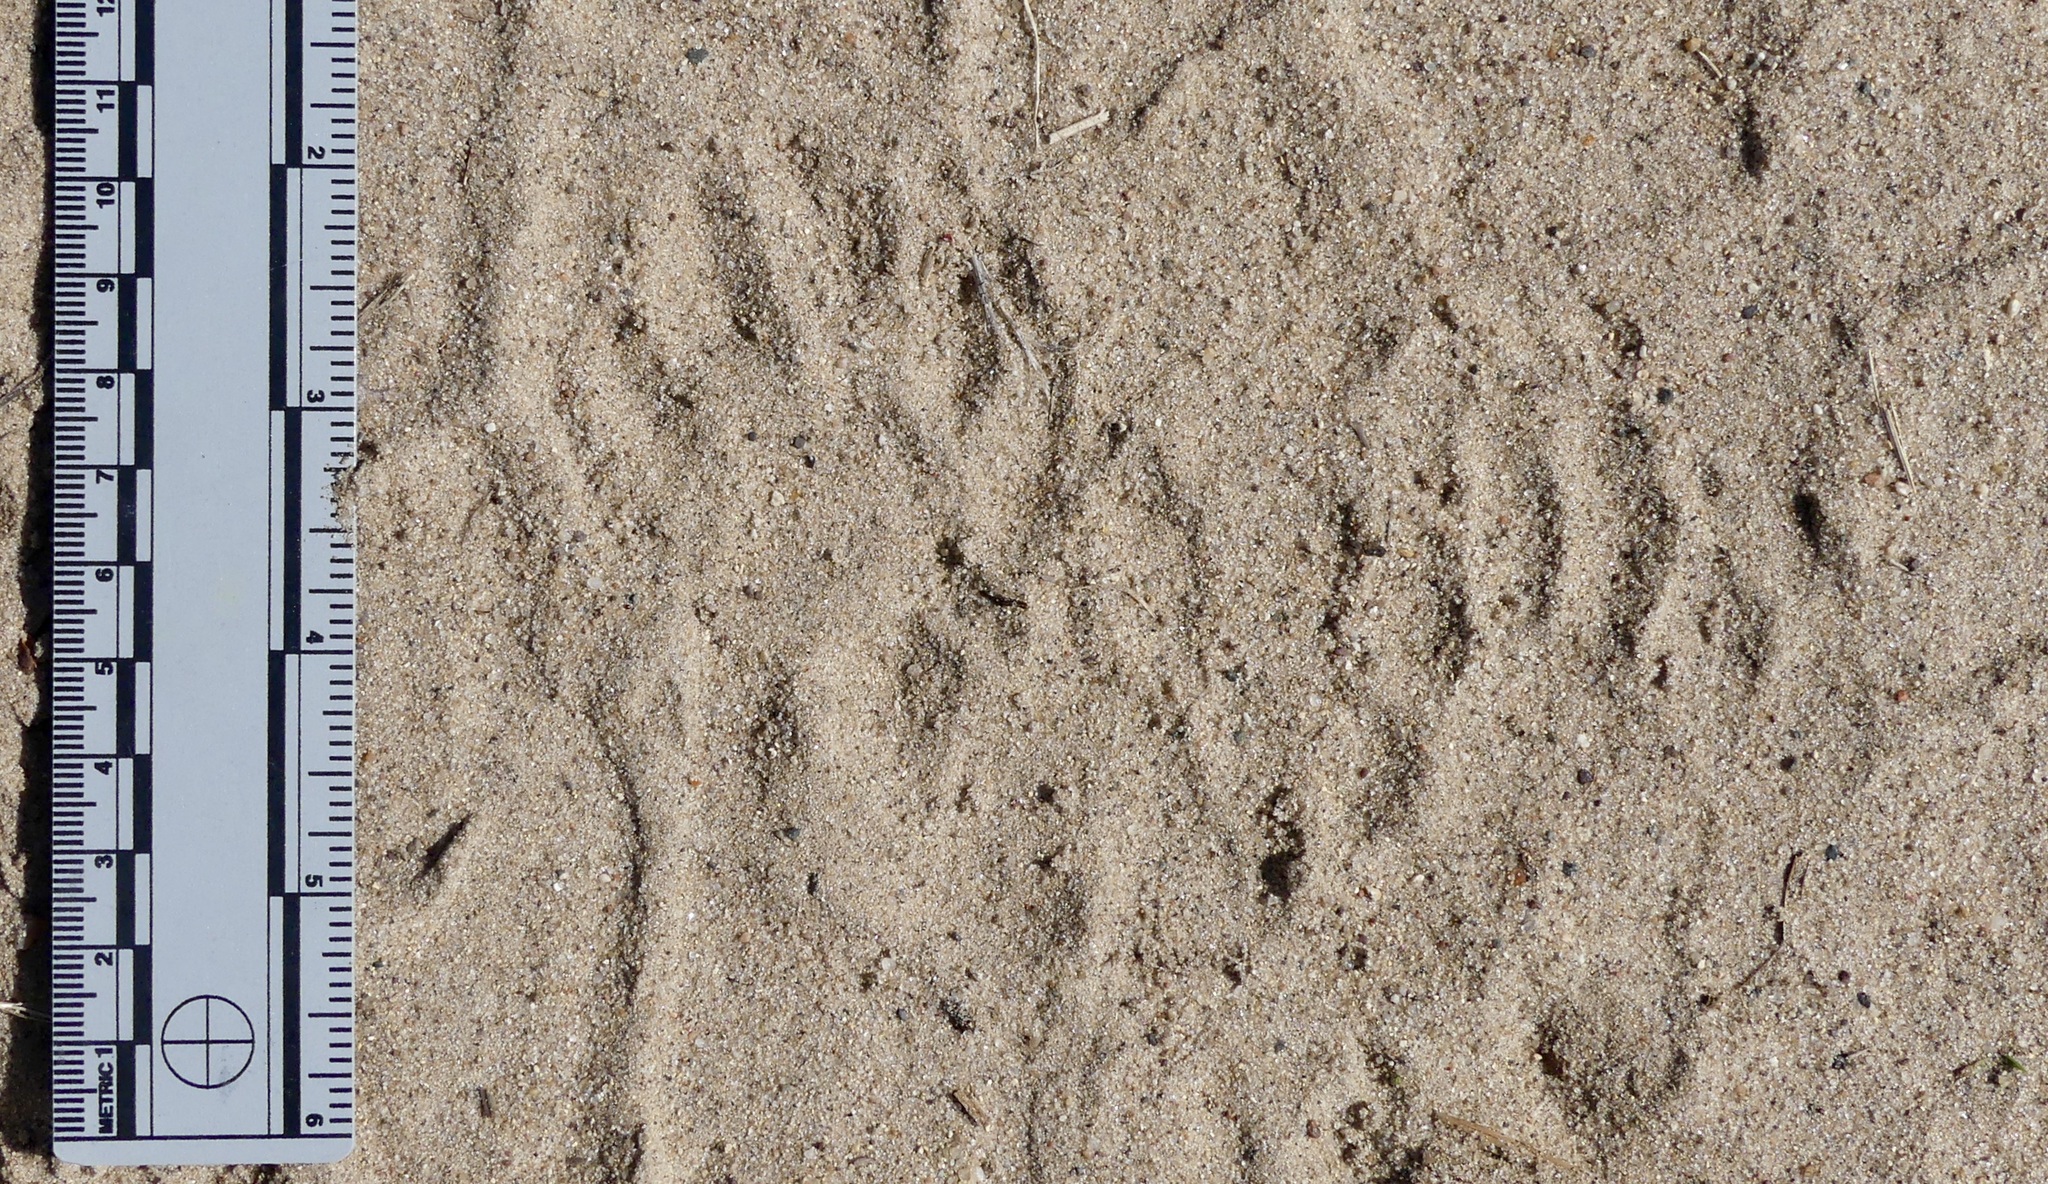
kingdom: Animalia
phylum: Chordata
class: Mammalia
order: Carnivora
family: Procyonidae
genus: Procyon
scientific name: Procyon lotor
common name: Raccoon
